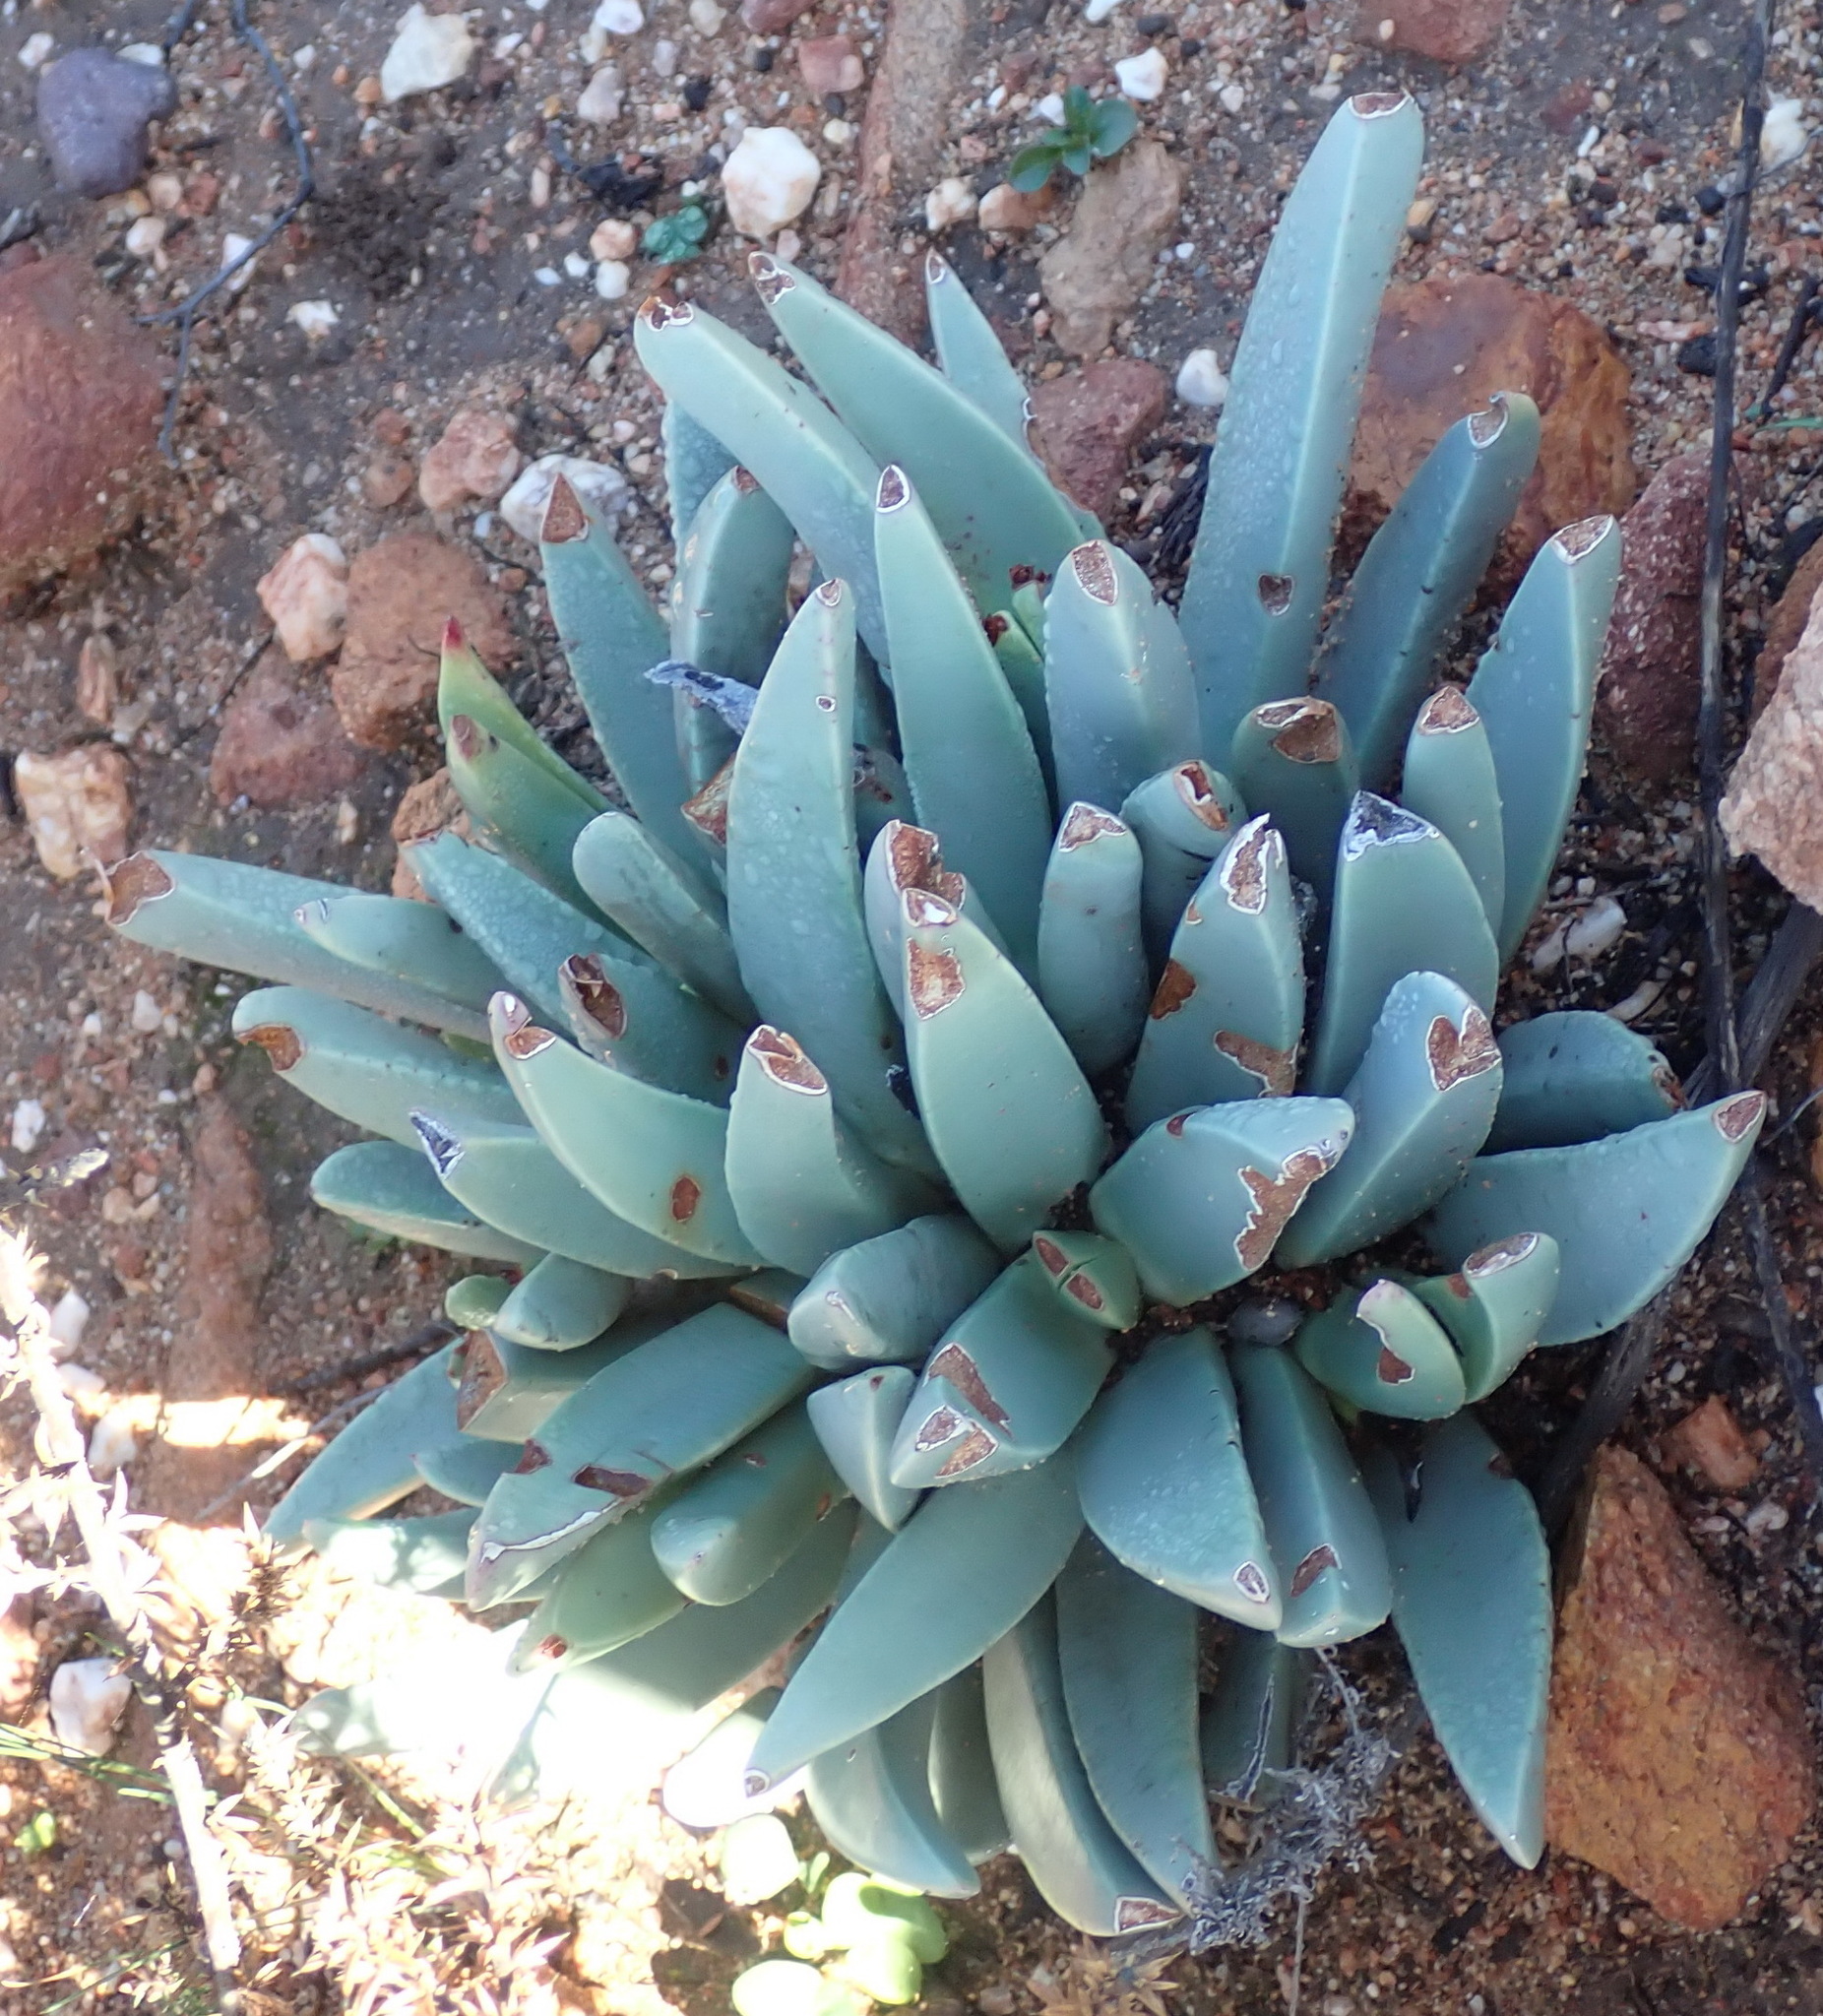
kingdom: Plantae
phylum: Tracheophyta
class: Magnoliopsida
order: Caryophyllales
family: Aizoaceae
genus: Machairophyllum
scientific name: Machairophyllum albidum
